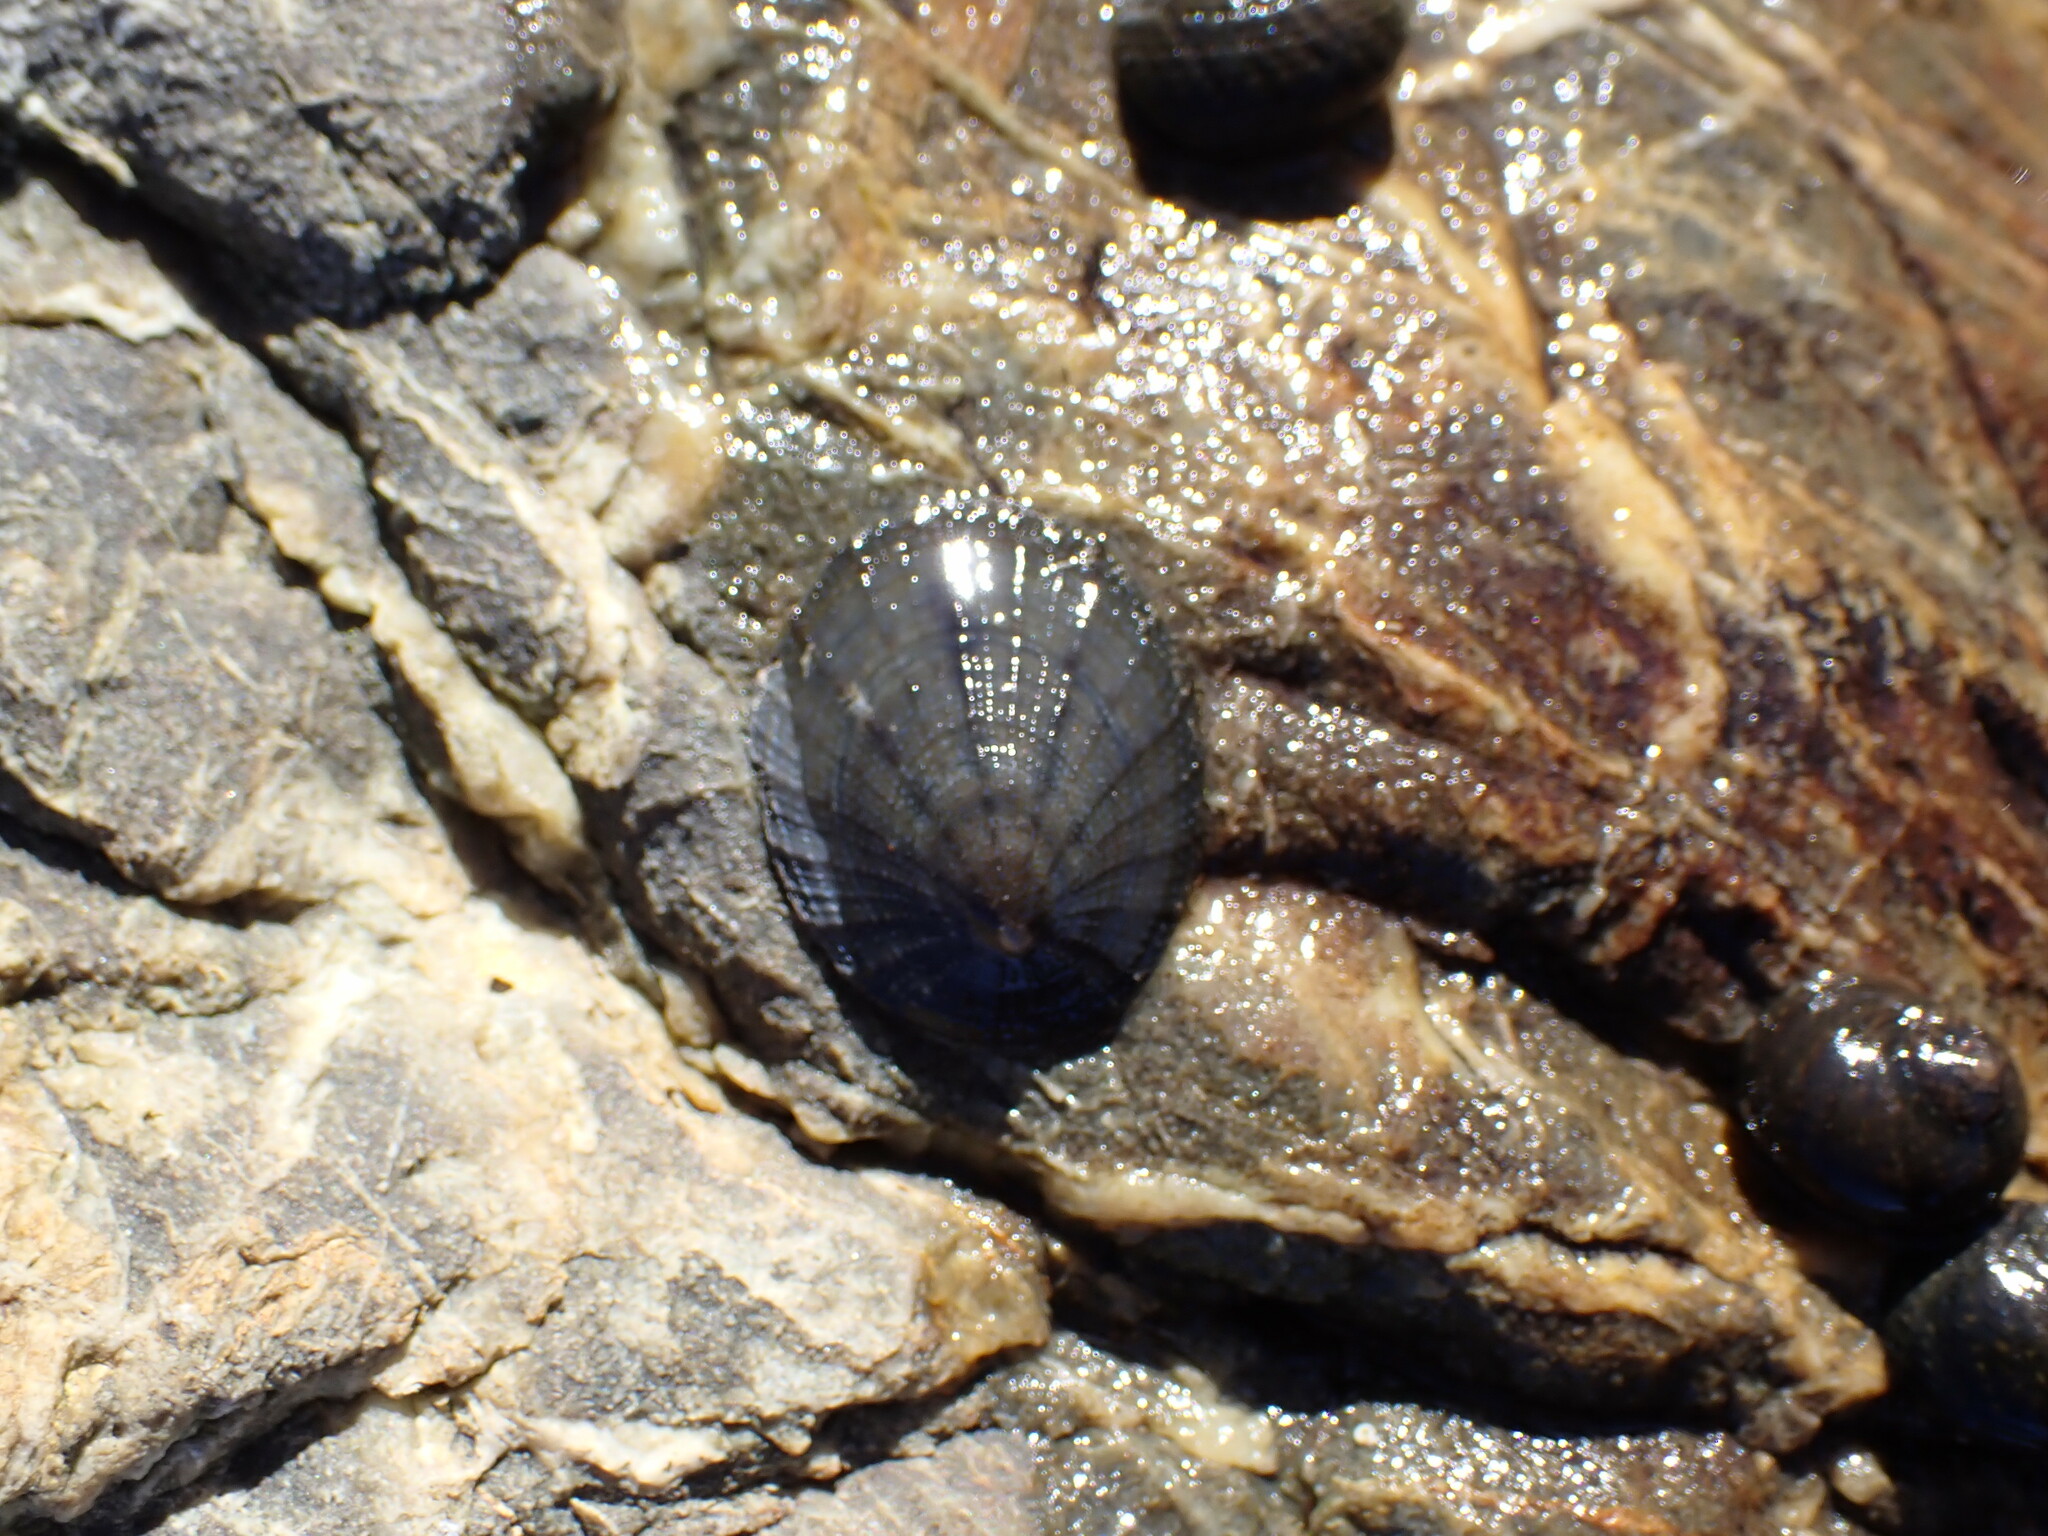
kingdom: Animalia
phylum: Mollusca
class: Gastropoda
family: Nacellidae
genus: Cellana
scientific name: Cellana radians
